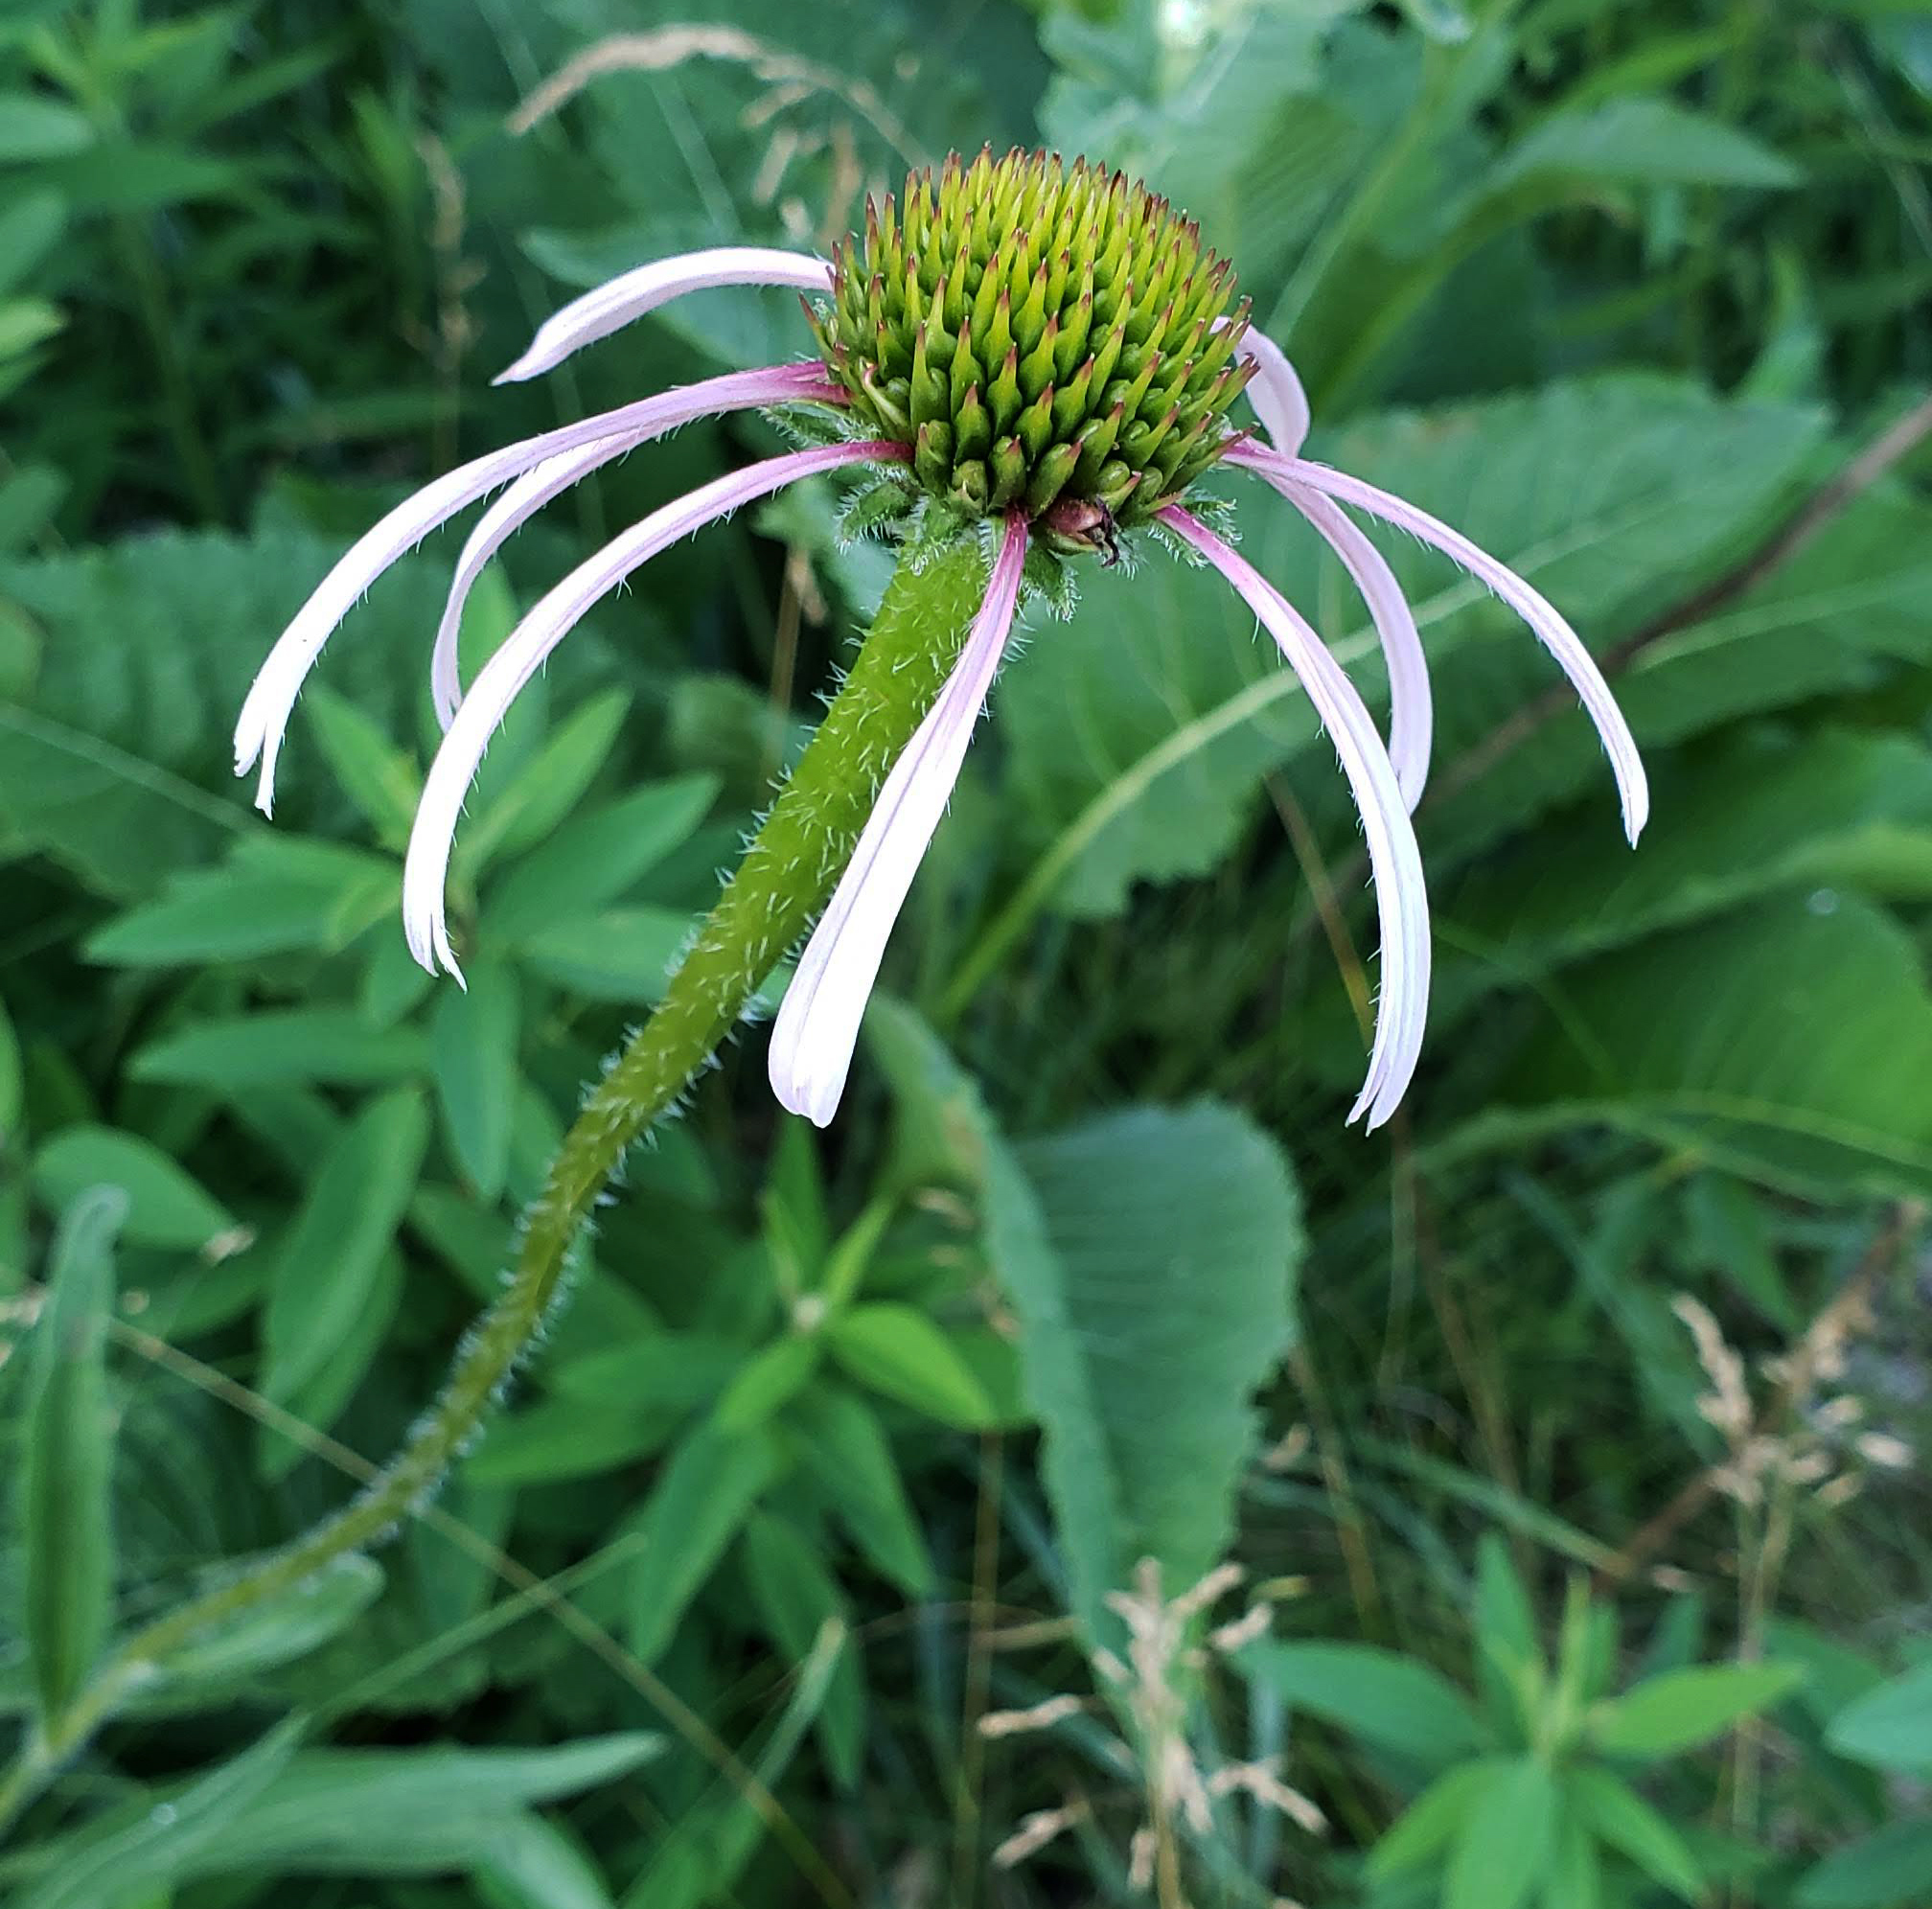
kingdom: Plantae
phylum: Tracheophyta
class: Magnoliopsida
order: Asterales
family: Asteraceae
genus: Echinacea
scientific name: Echinacea pallida
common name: Pale echinacea
